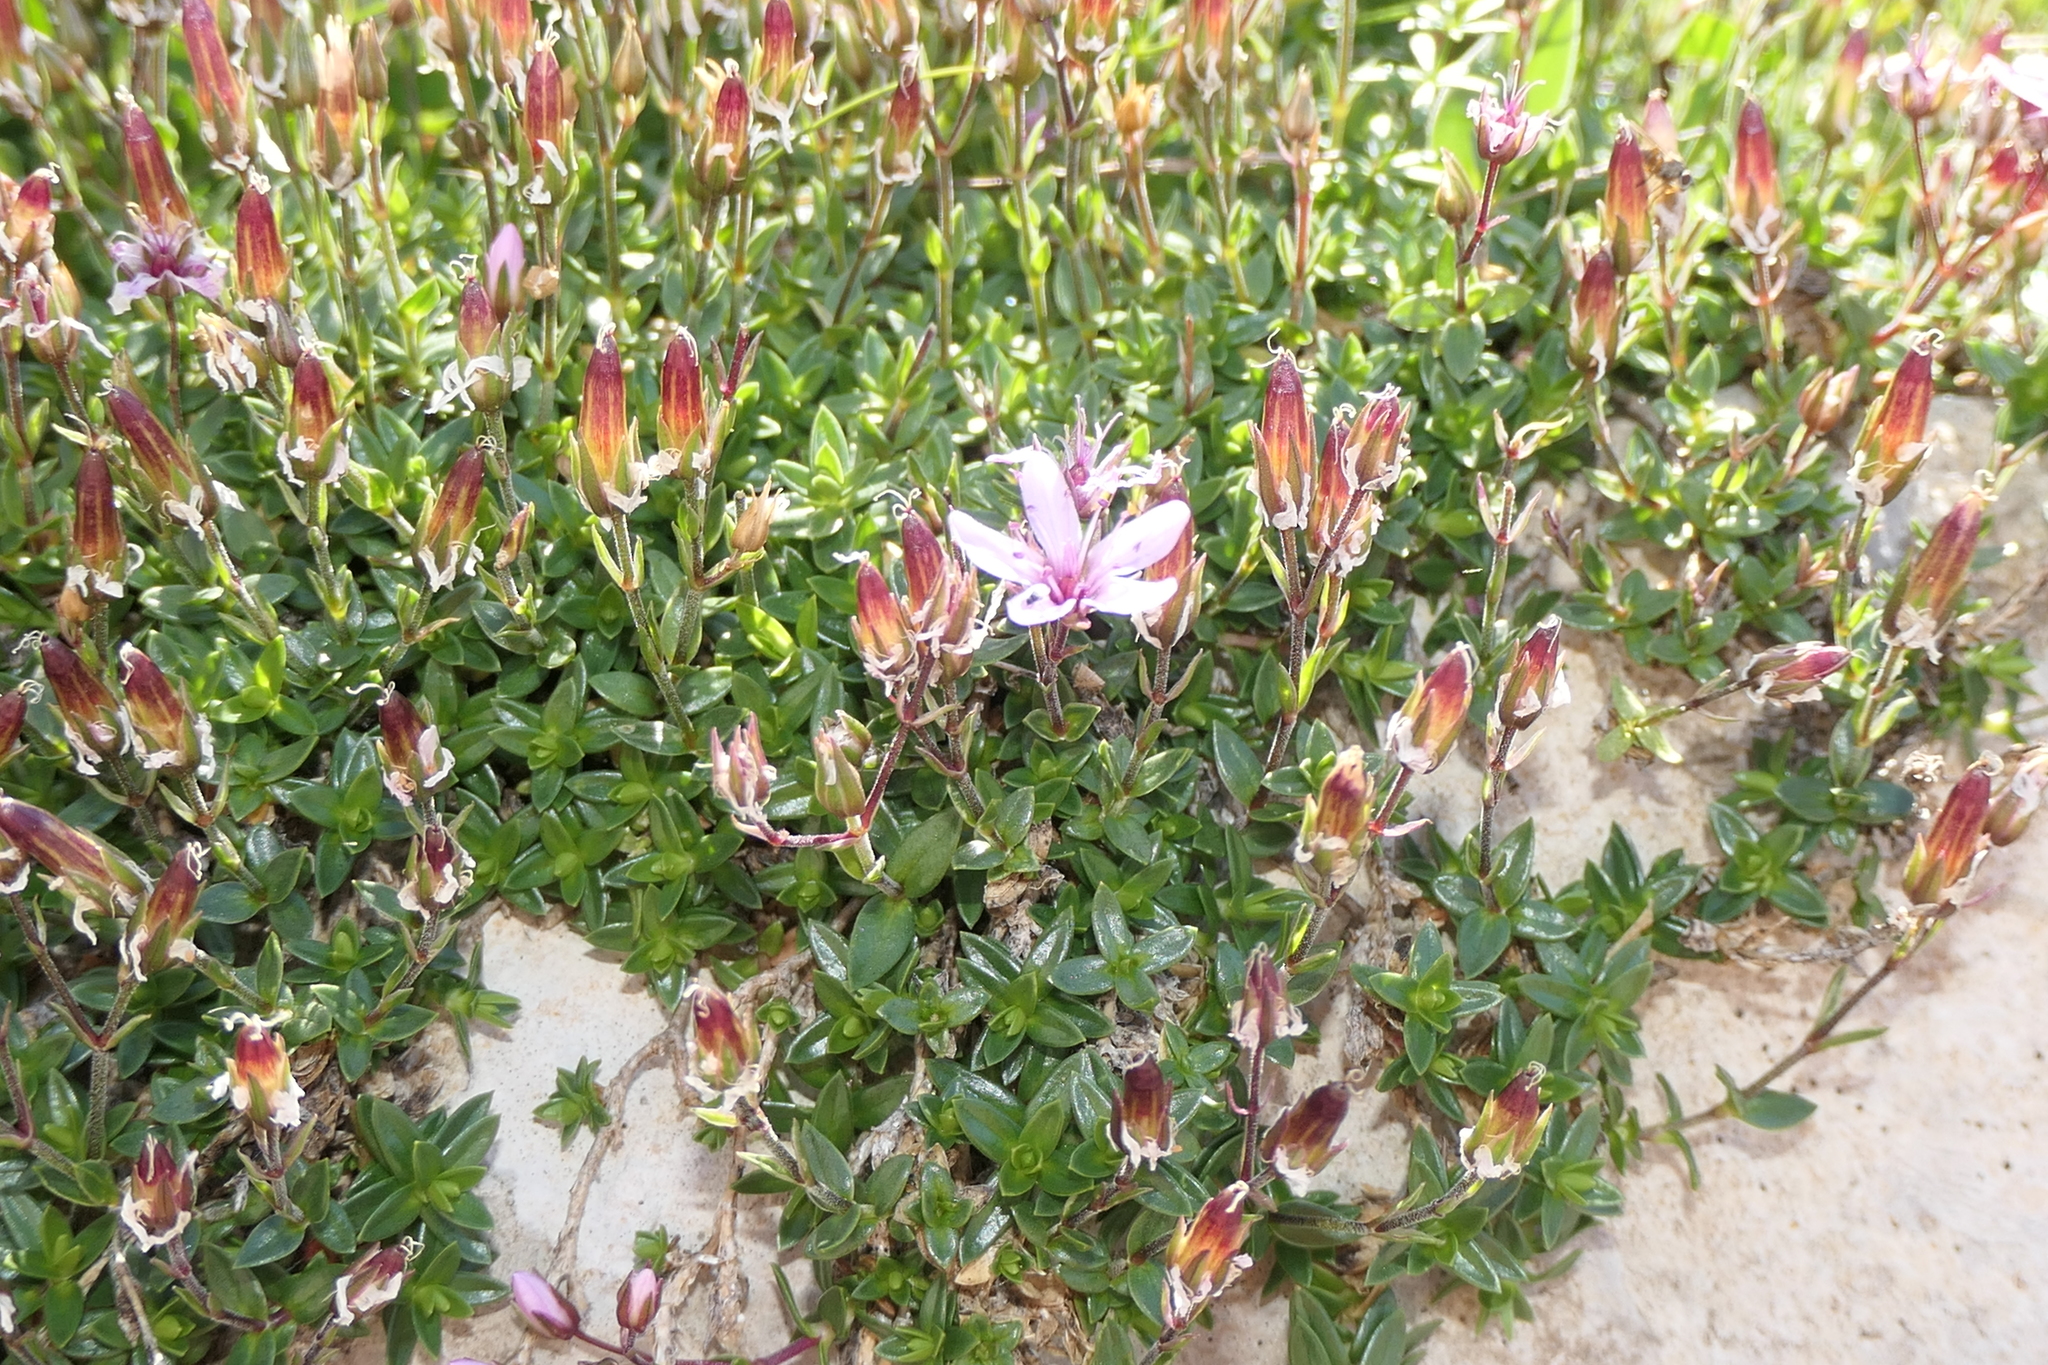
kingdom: Plantae
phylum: Tracheophyta
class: Magnoliopsida
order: Caryophyllales
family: Caryophyllaceae
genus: Arenaria
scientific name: Arenaria purpurascens
